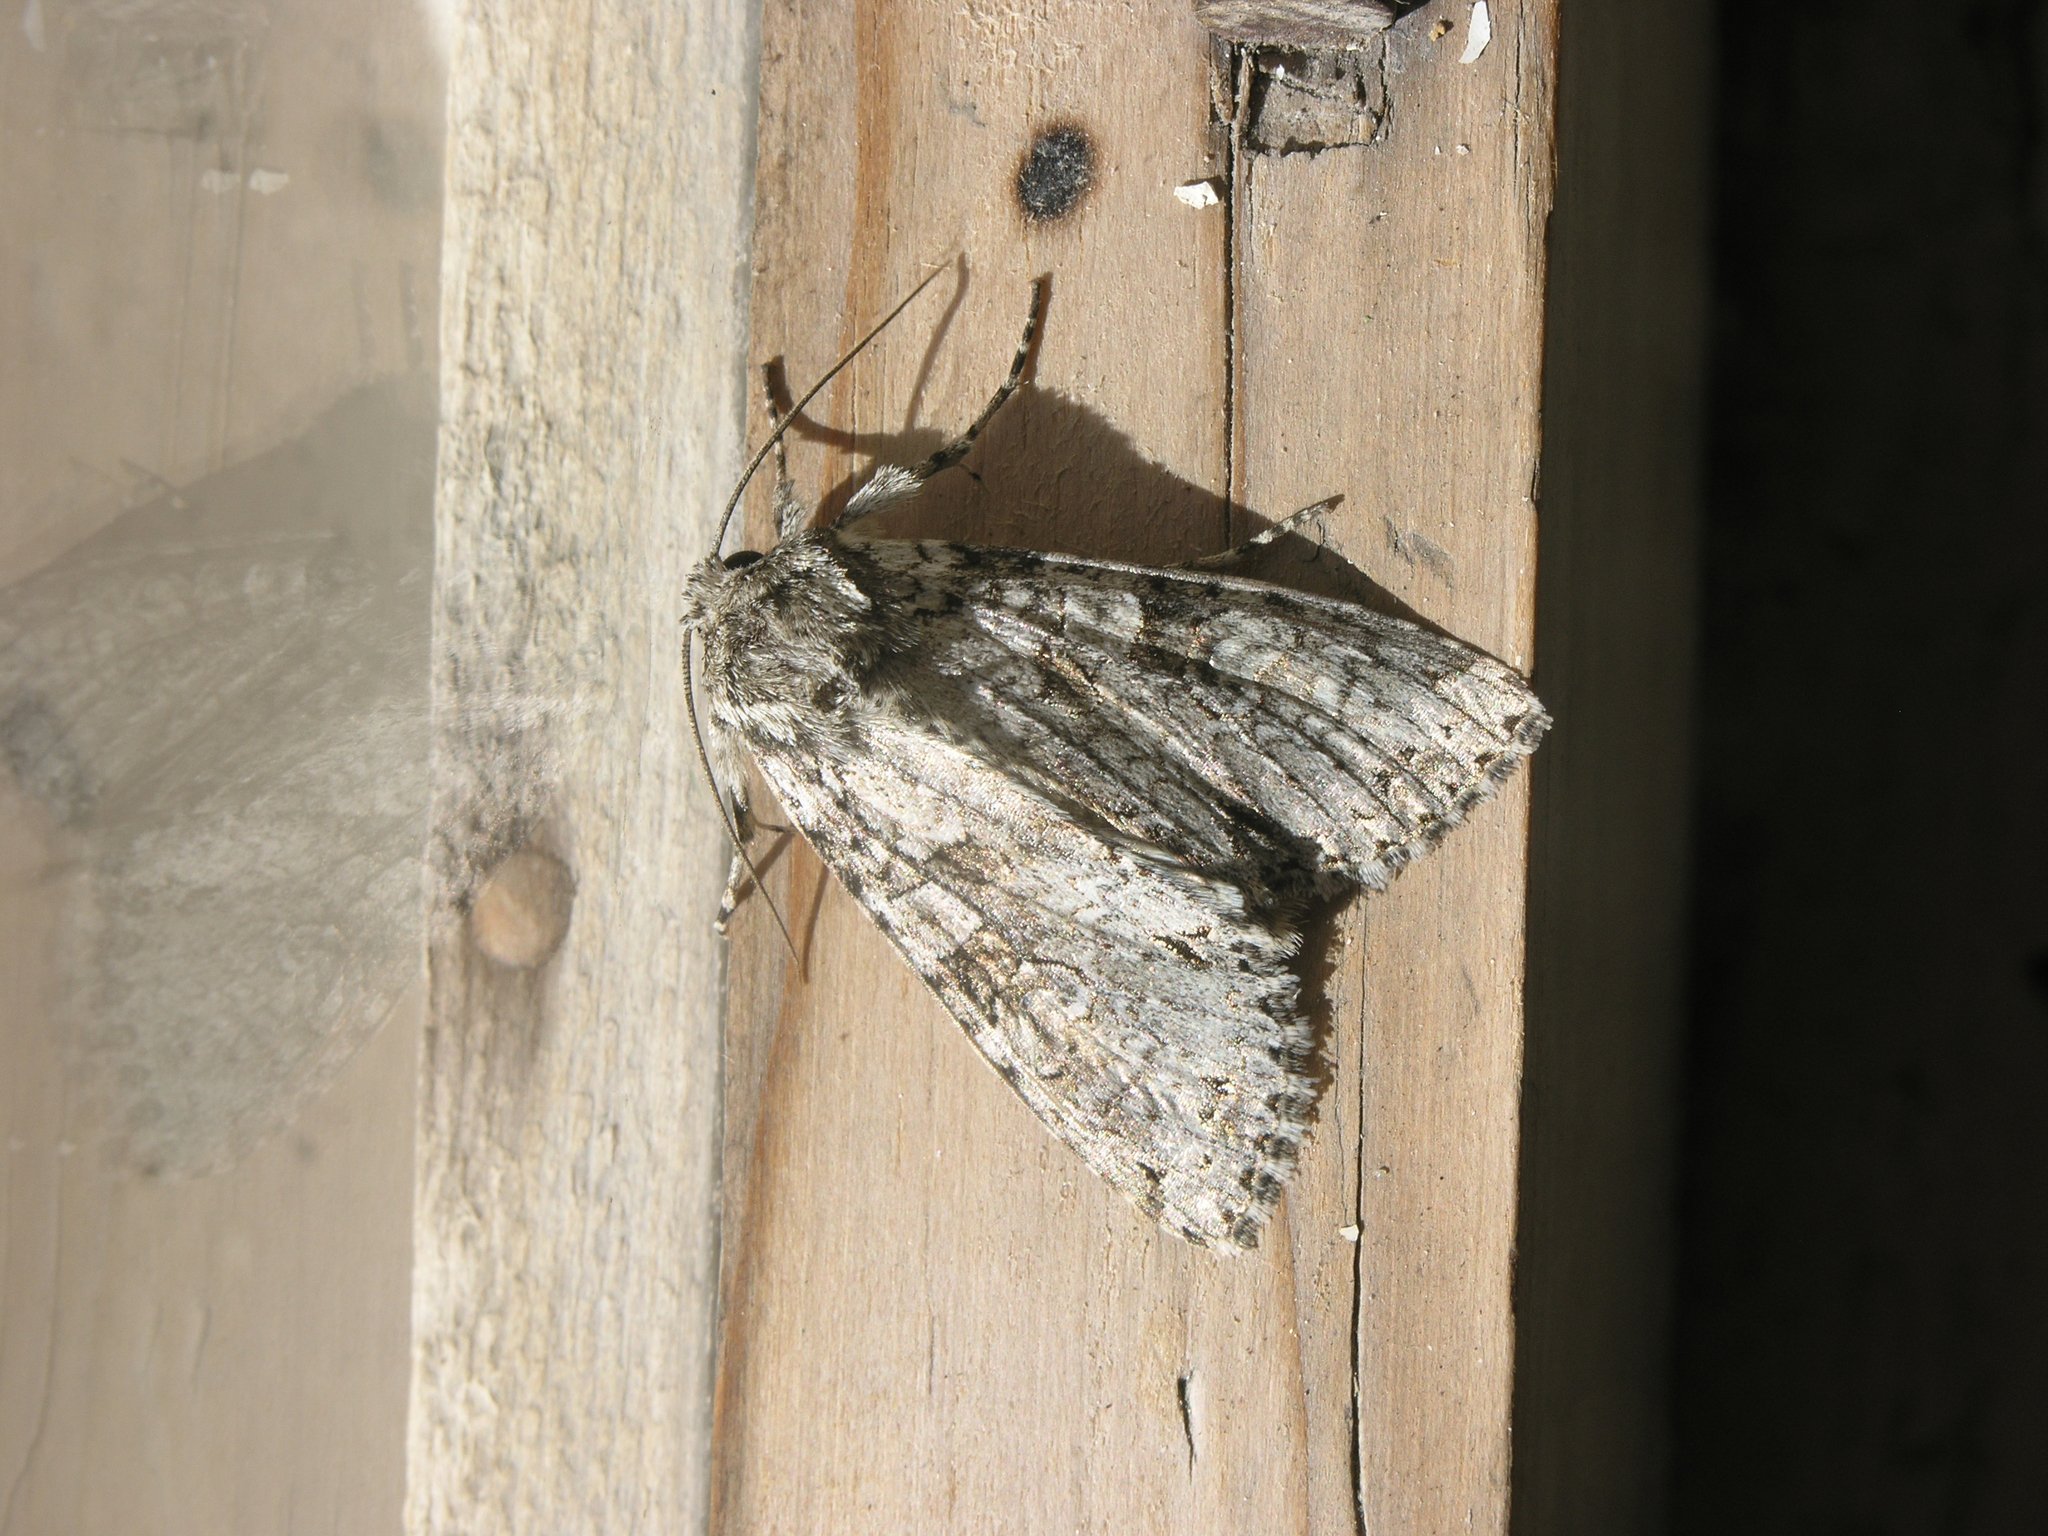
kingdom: Animalia
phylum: Arthropoda
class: Insecta
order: Lepidoptera
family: Noctuidae
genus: Polia
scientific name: Polia nebulosa
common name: Grey arches
